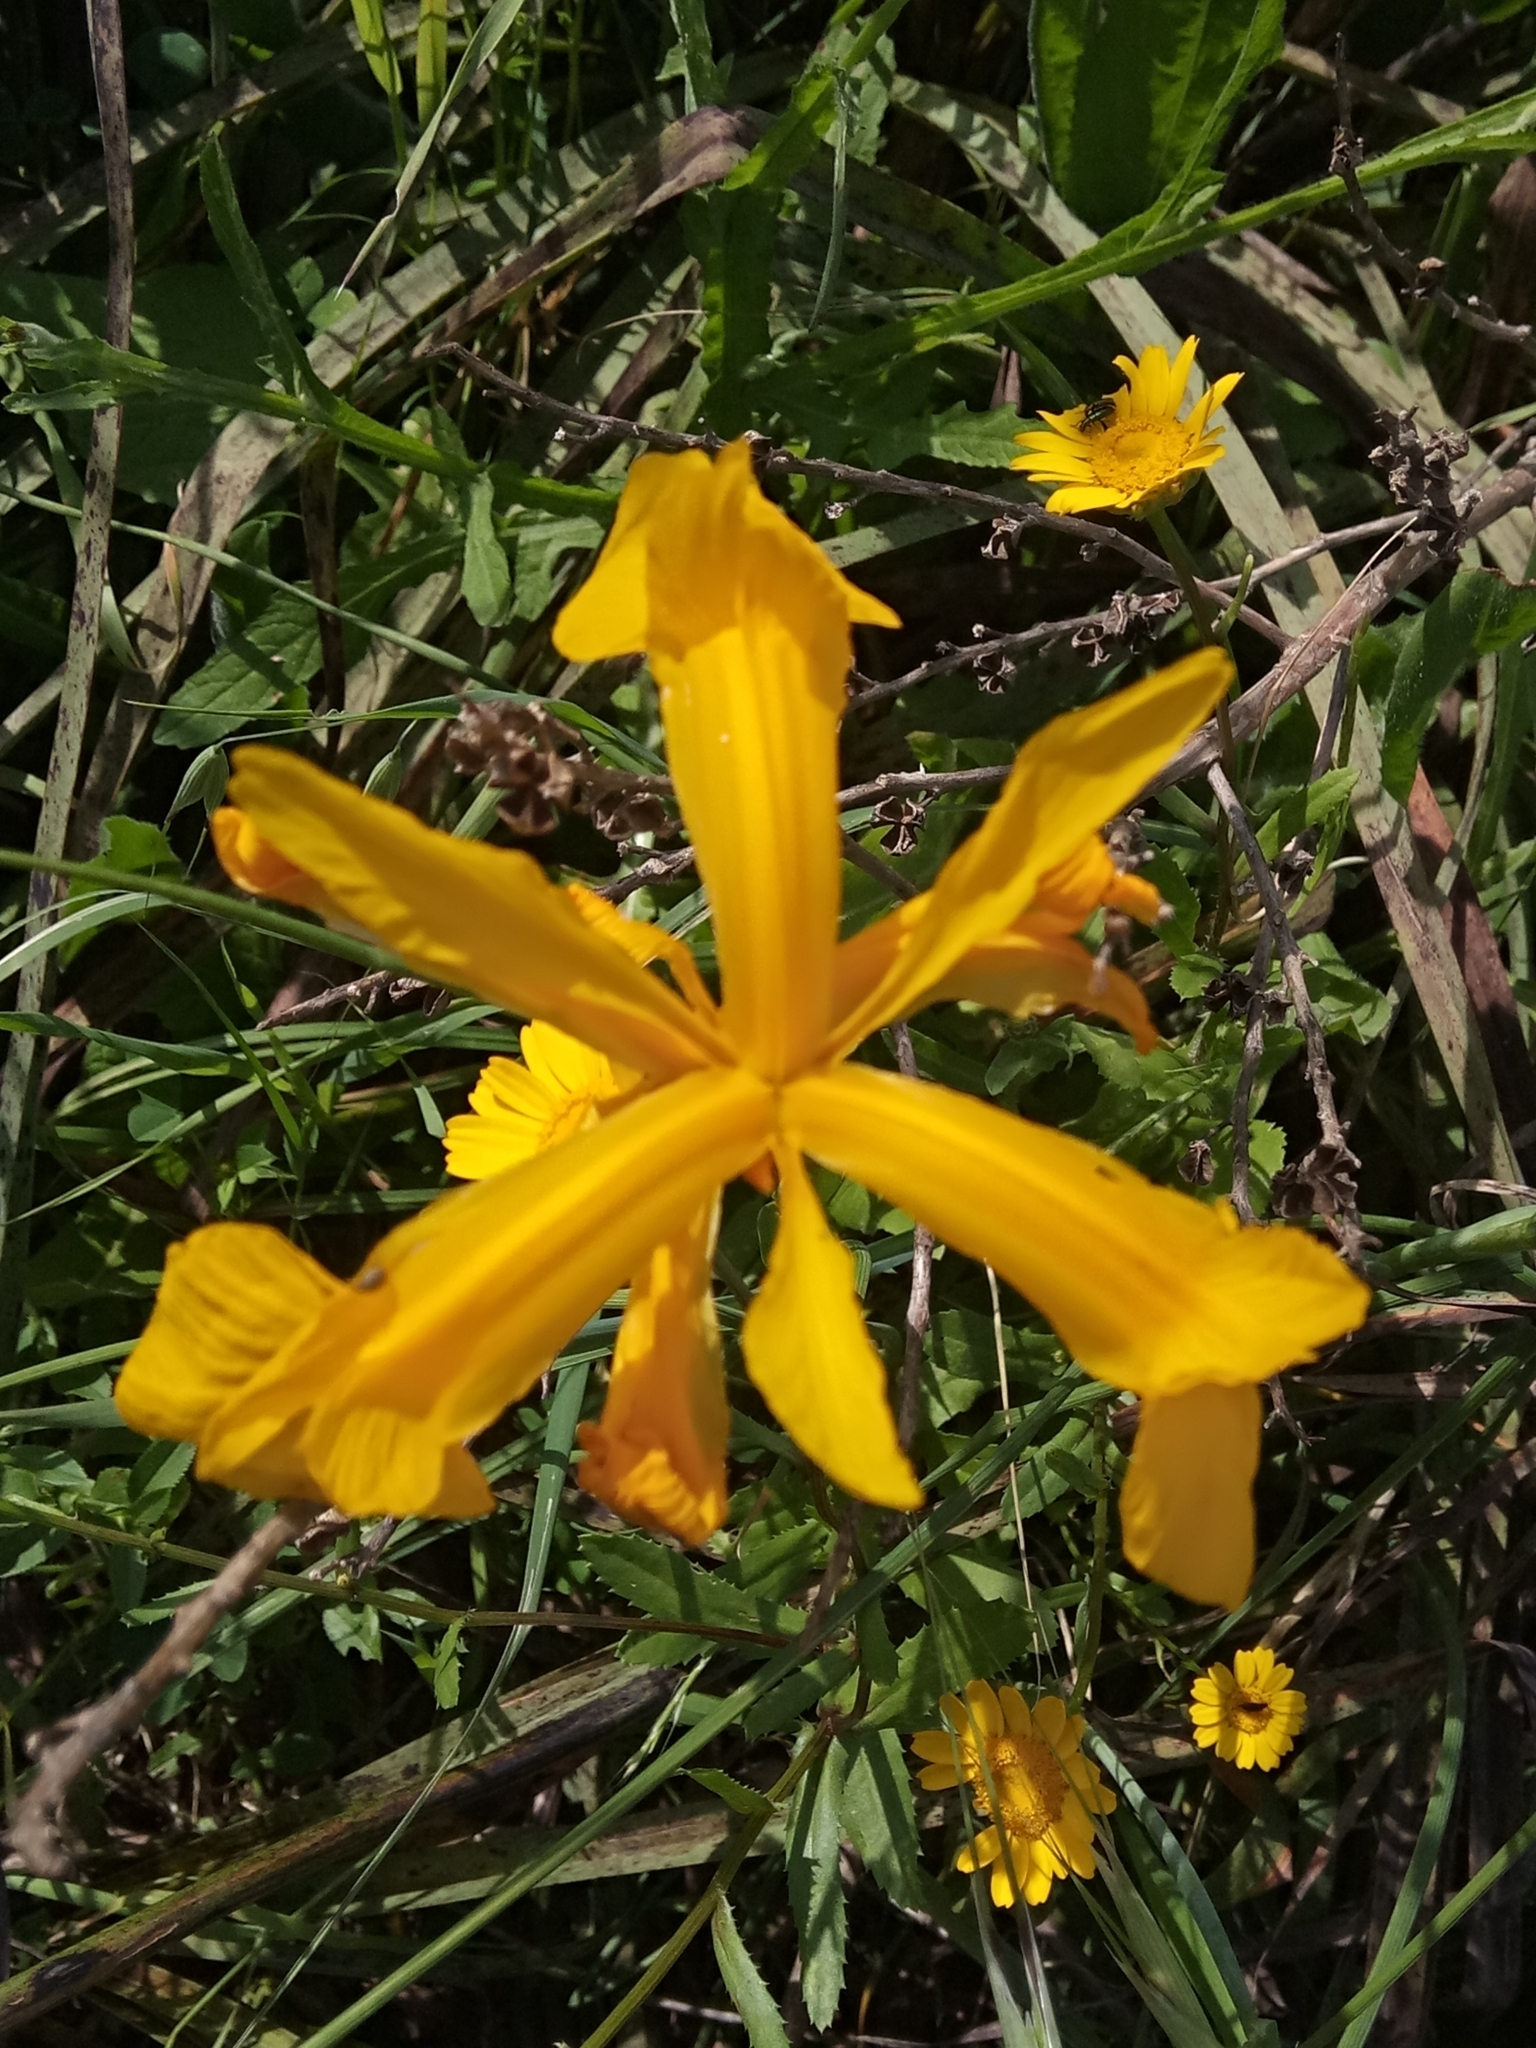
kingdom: Plantae
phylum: Tracheophyta
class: Liliopsida
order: Asparagales
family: Iridaceae
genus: Iris
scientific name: Iris juncea
